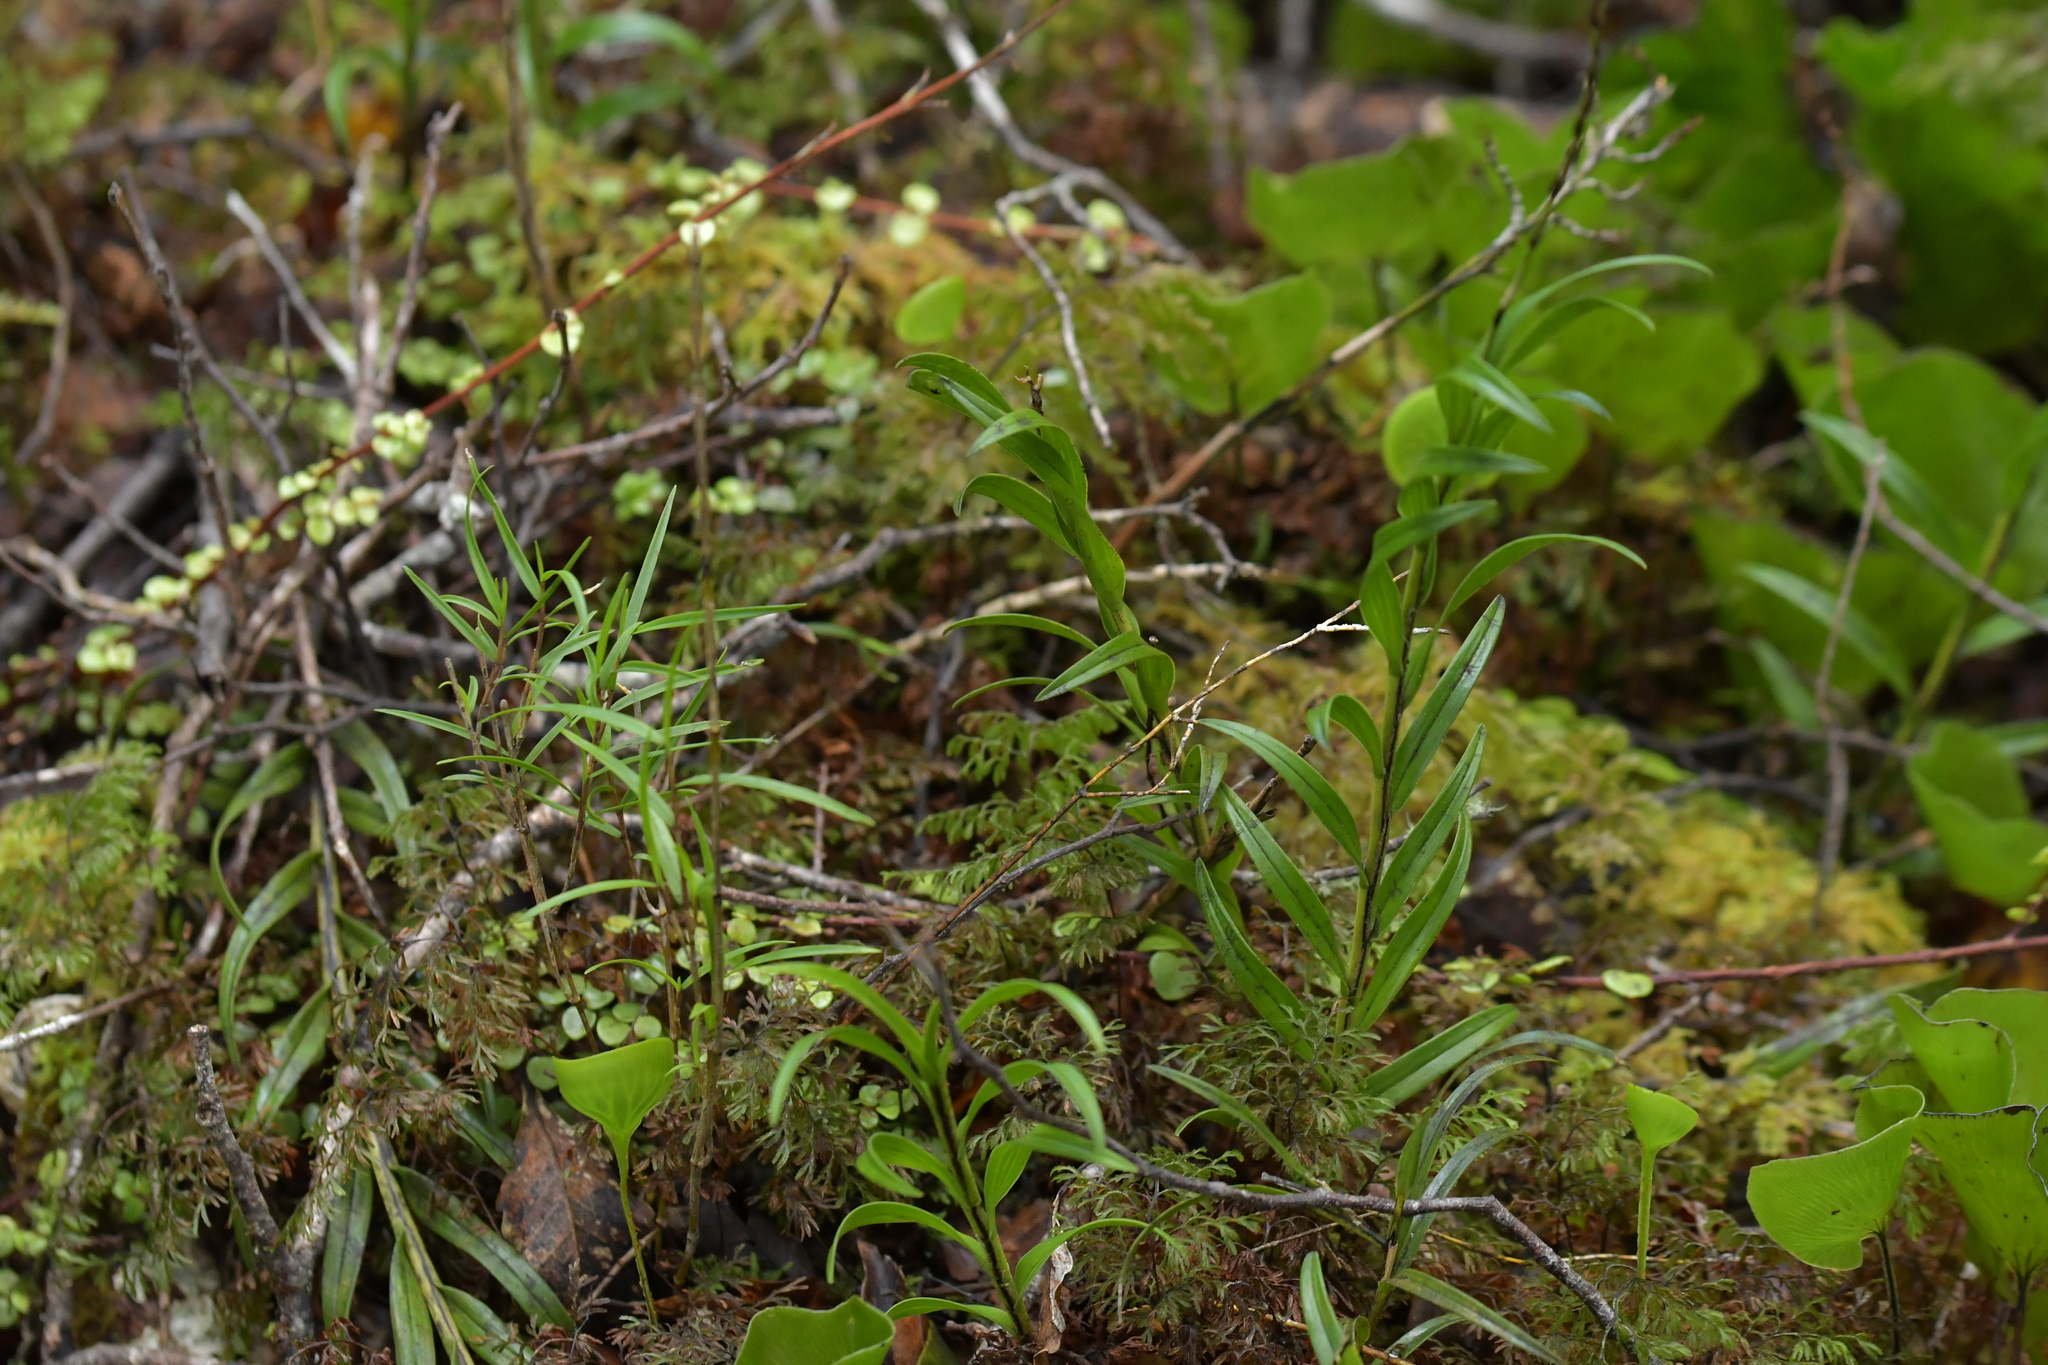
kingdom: Plantae
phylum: Tracheophyta
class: Liliopsida
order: Asparagales
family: Orchidaceae
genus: Earina
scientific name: Earina autumnalis
